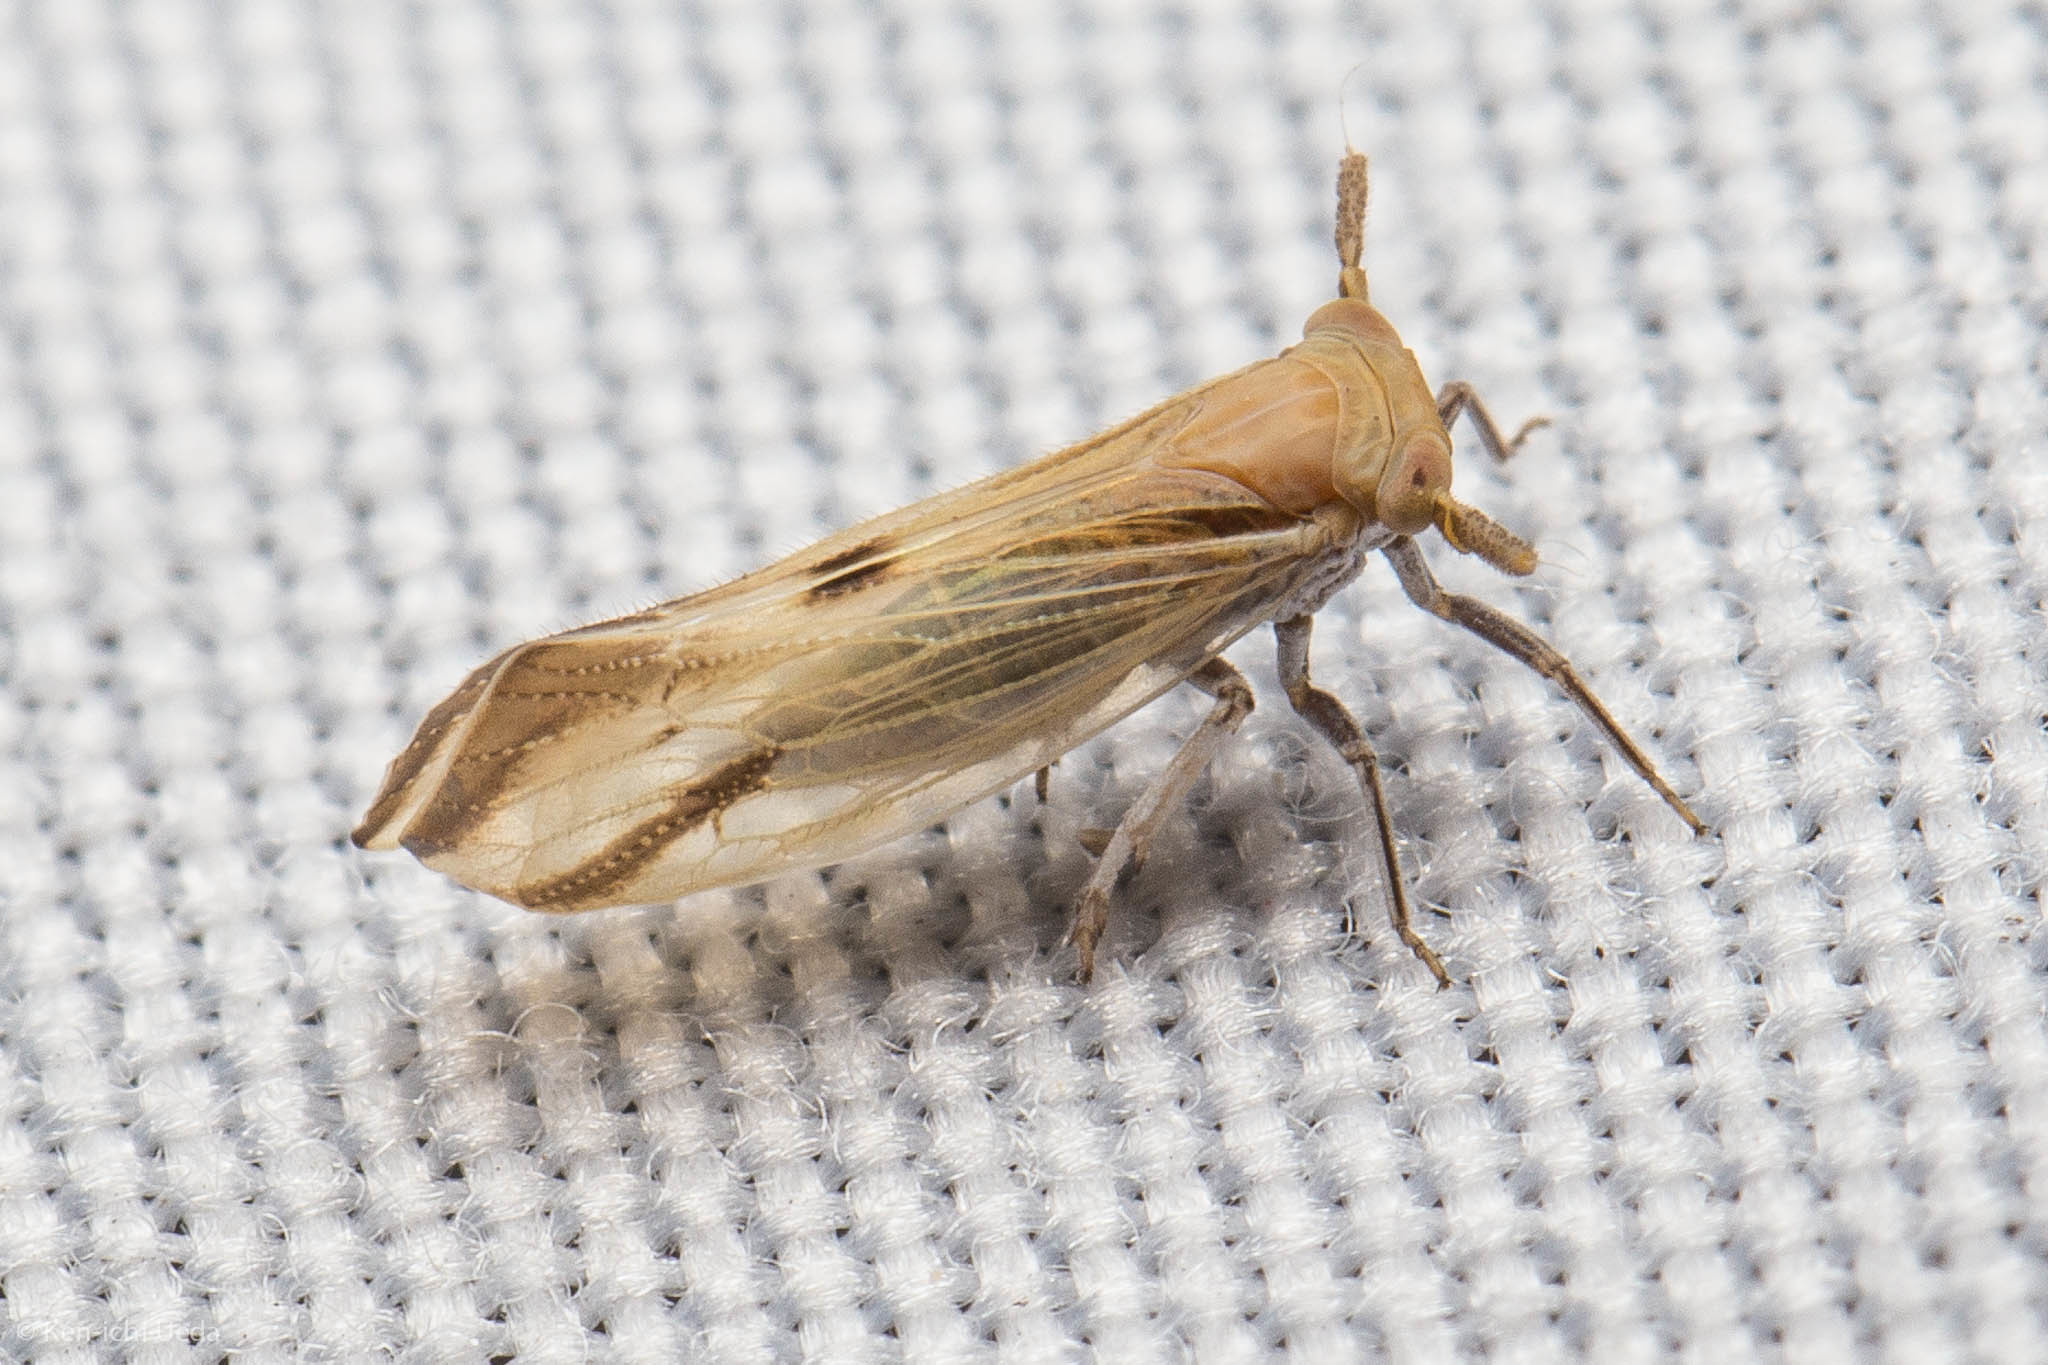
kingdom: Animalia
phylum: Arthropoda
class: Insecta
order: Hemiptera
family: Delphacidae
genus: Bostaera
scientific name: Bostaera nasuta
